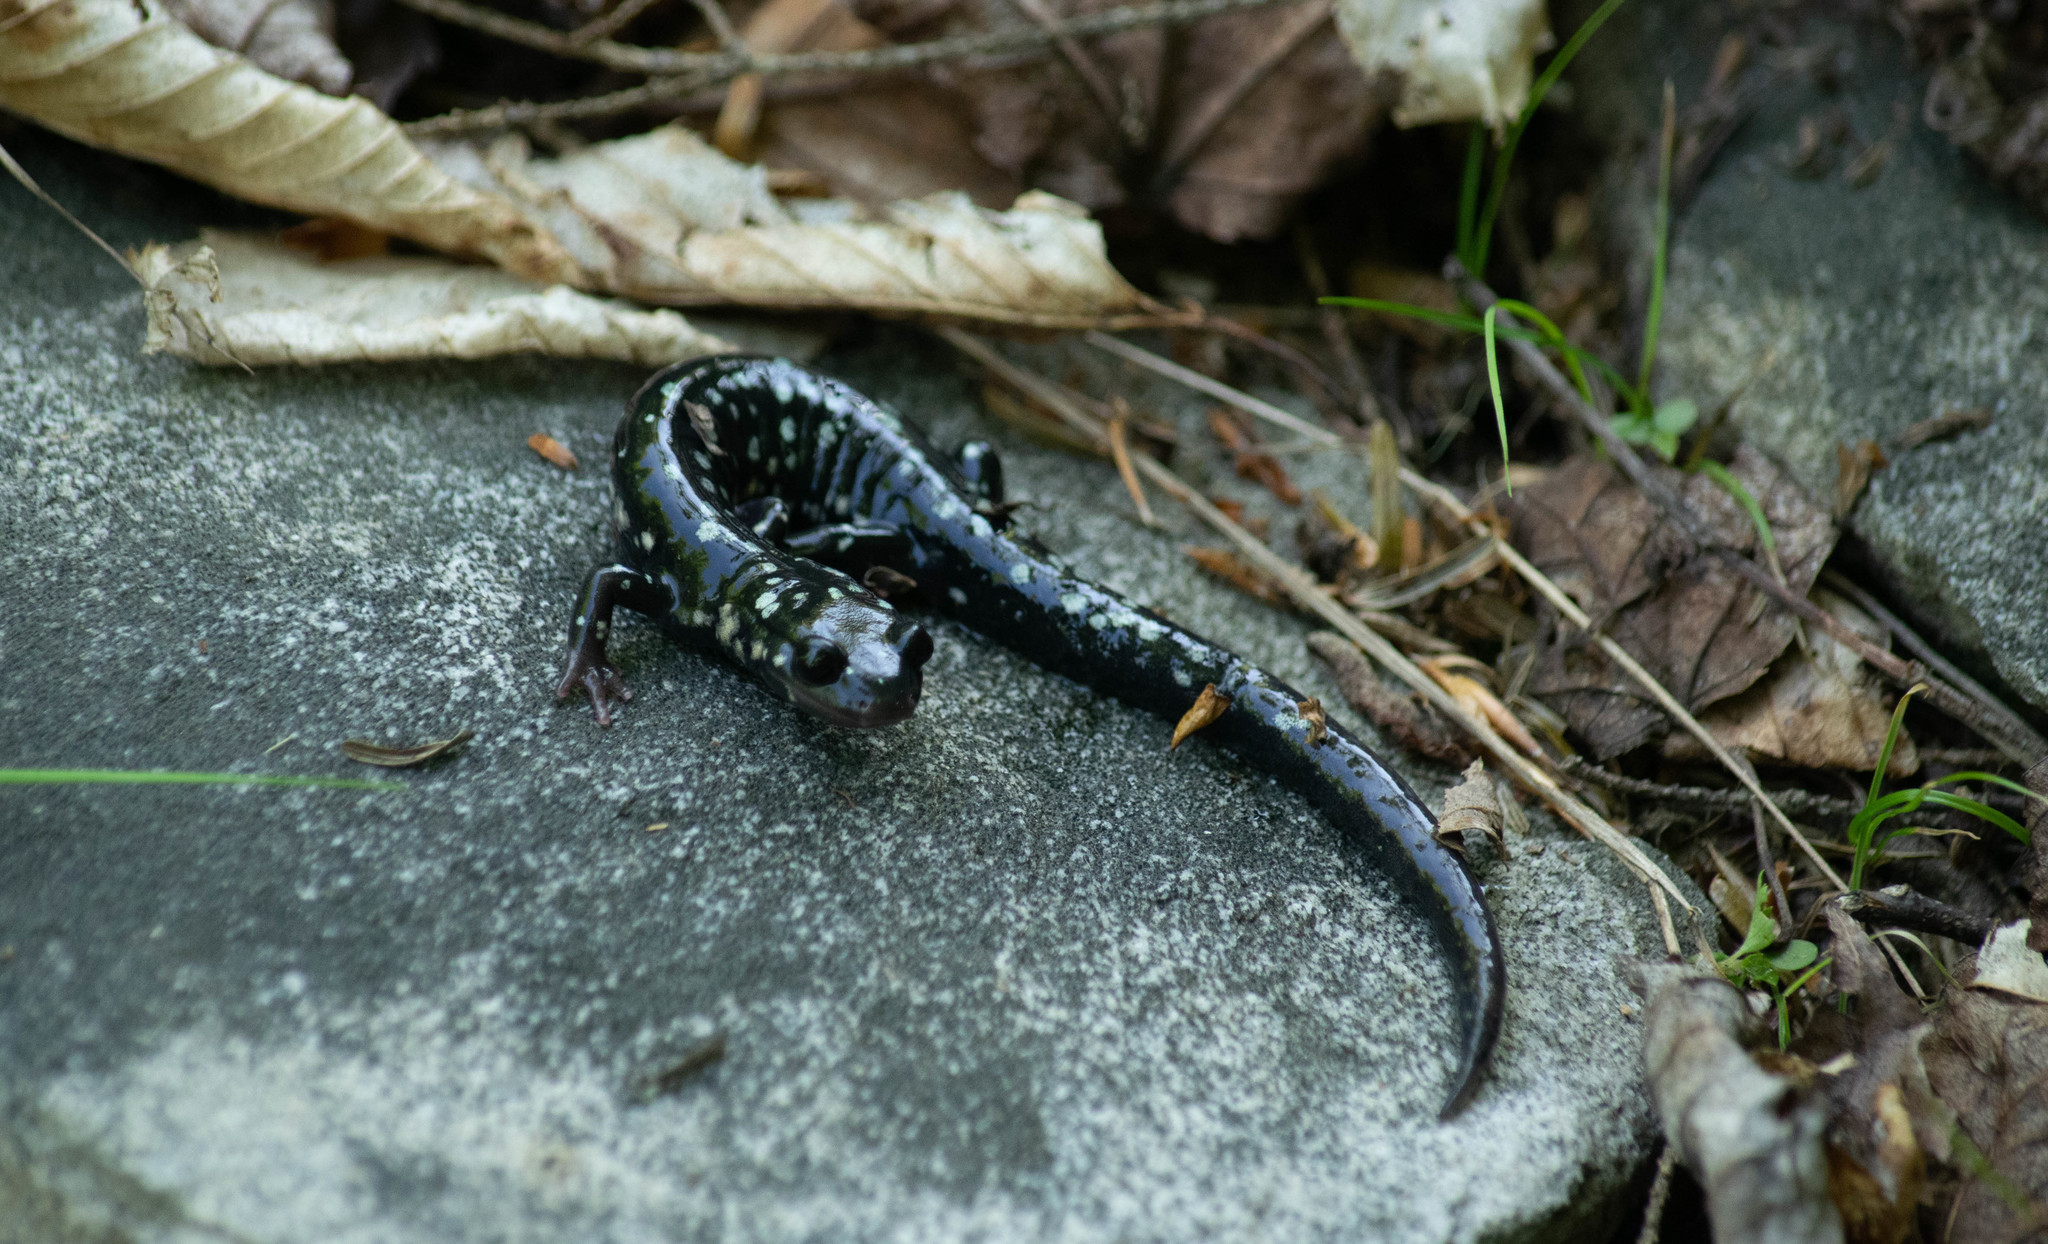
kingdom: Animalia
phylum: Chordata
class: Amphibia
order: Caudata
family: Plethodontidae
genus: Plethodon
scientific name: Plethodon glutinosus
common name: Northern slimy salamander
